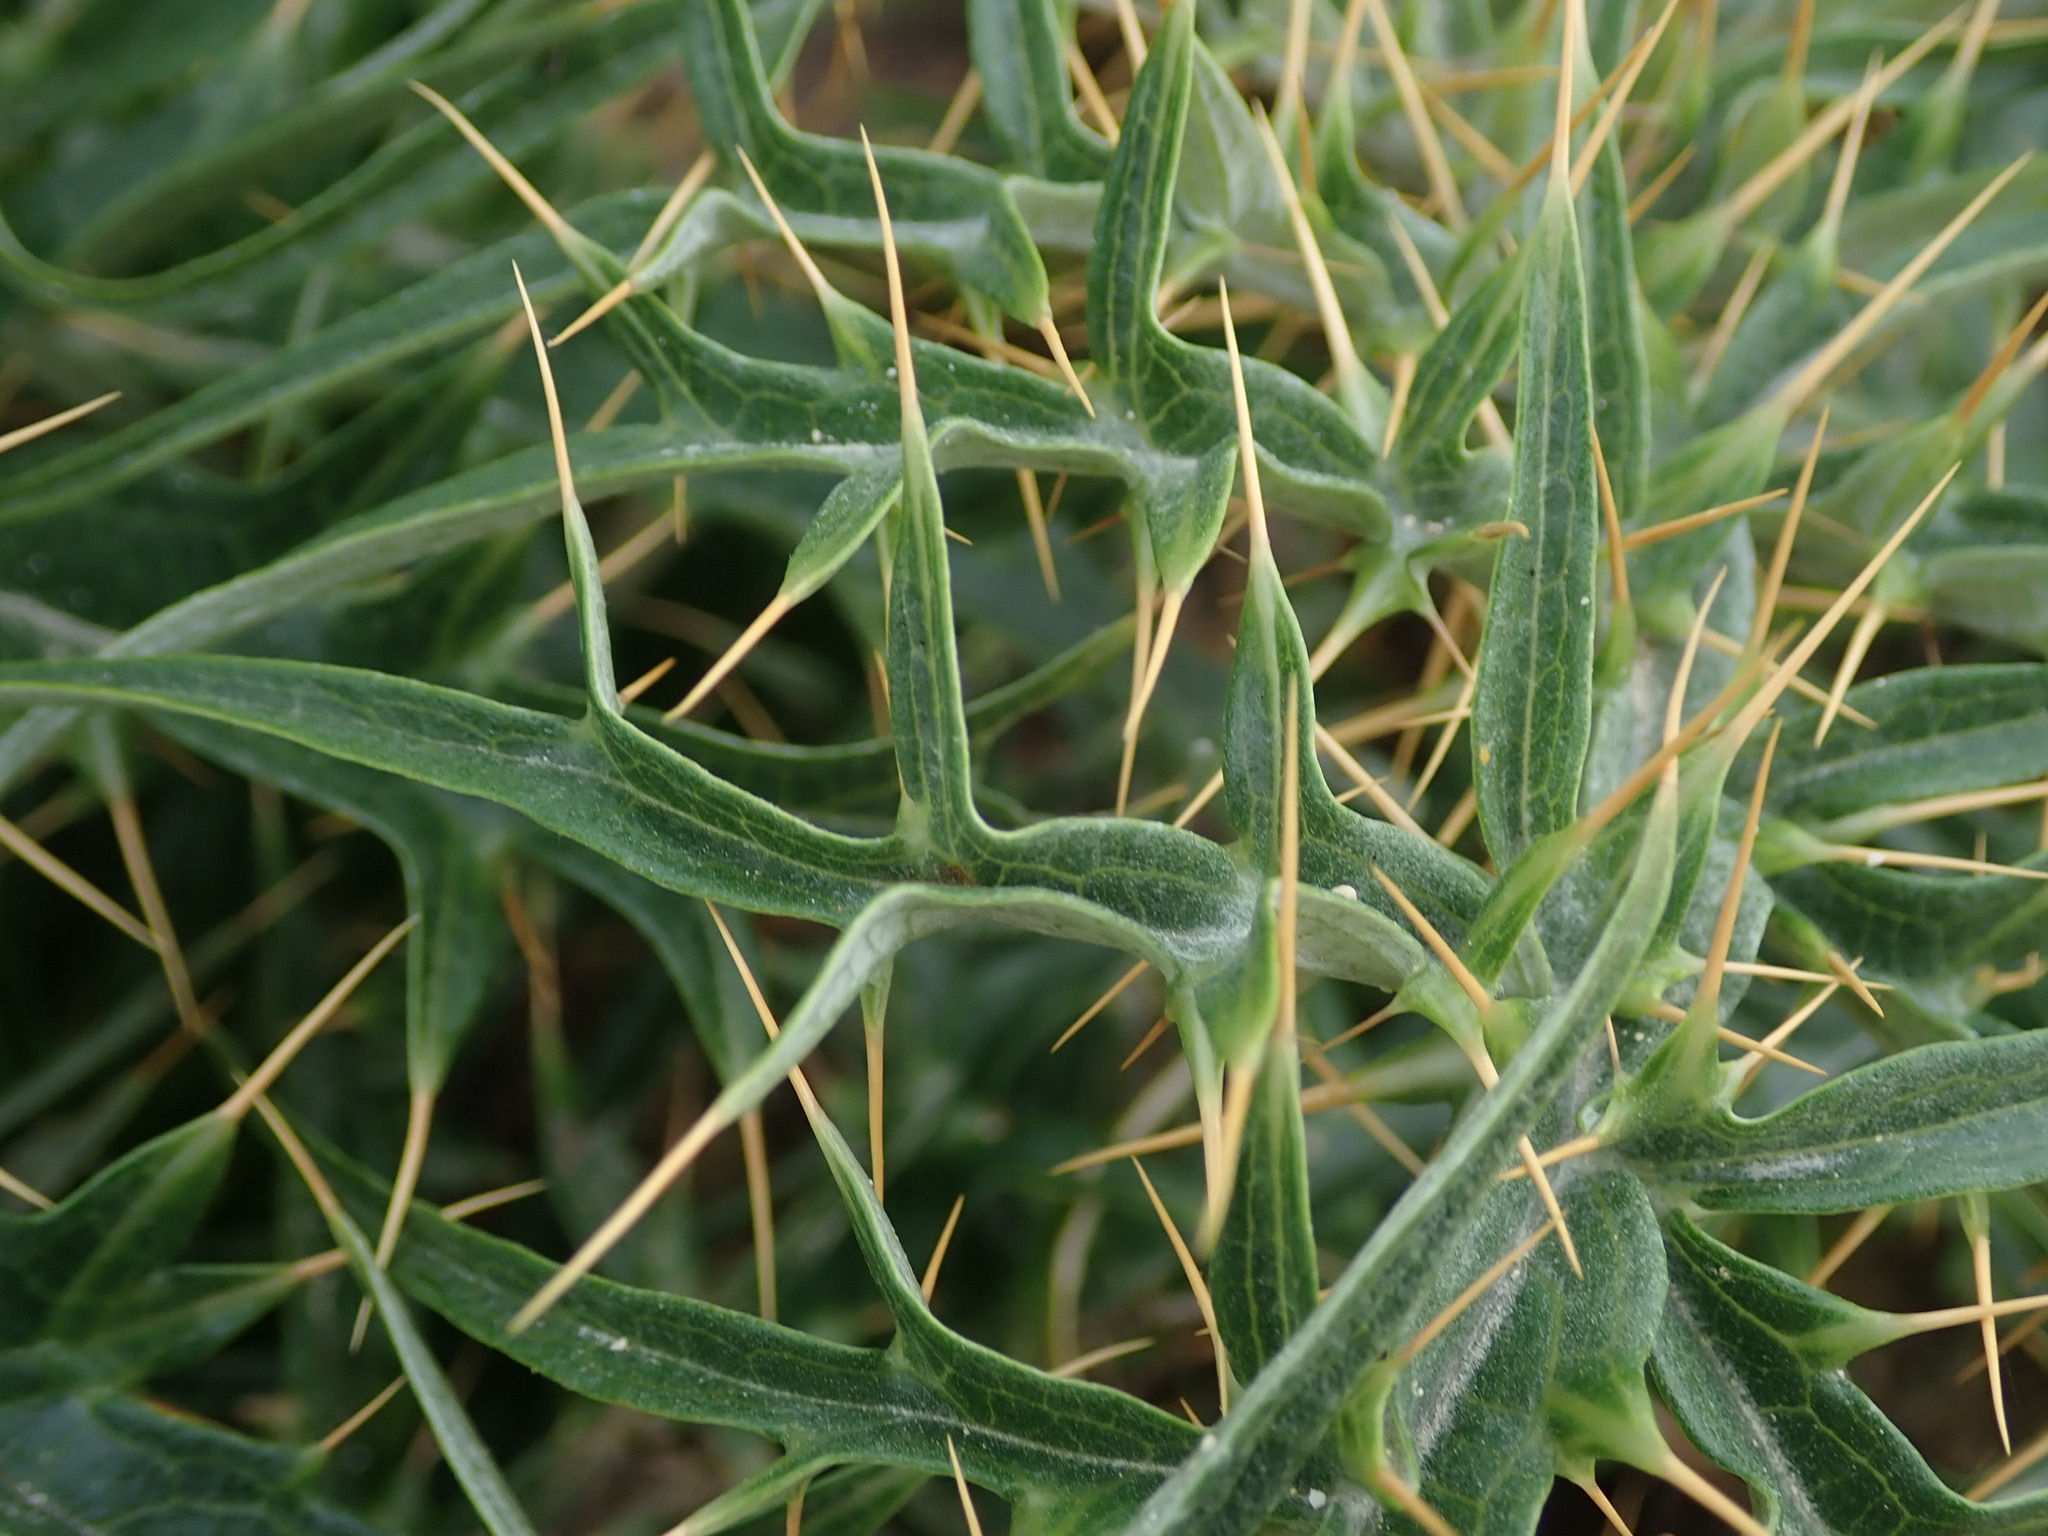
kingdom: Plantae
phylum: Tracheophyta
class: Magnoliopsida
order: Asterales
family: Asteraceae
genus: Cynara
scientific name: Cynara cardunculus
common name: Globe artichoke
